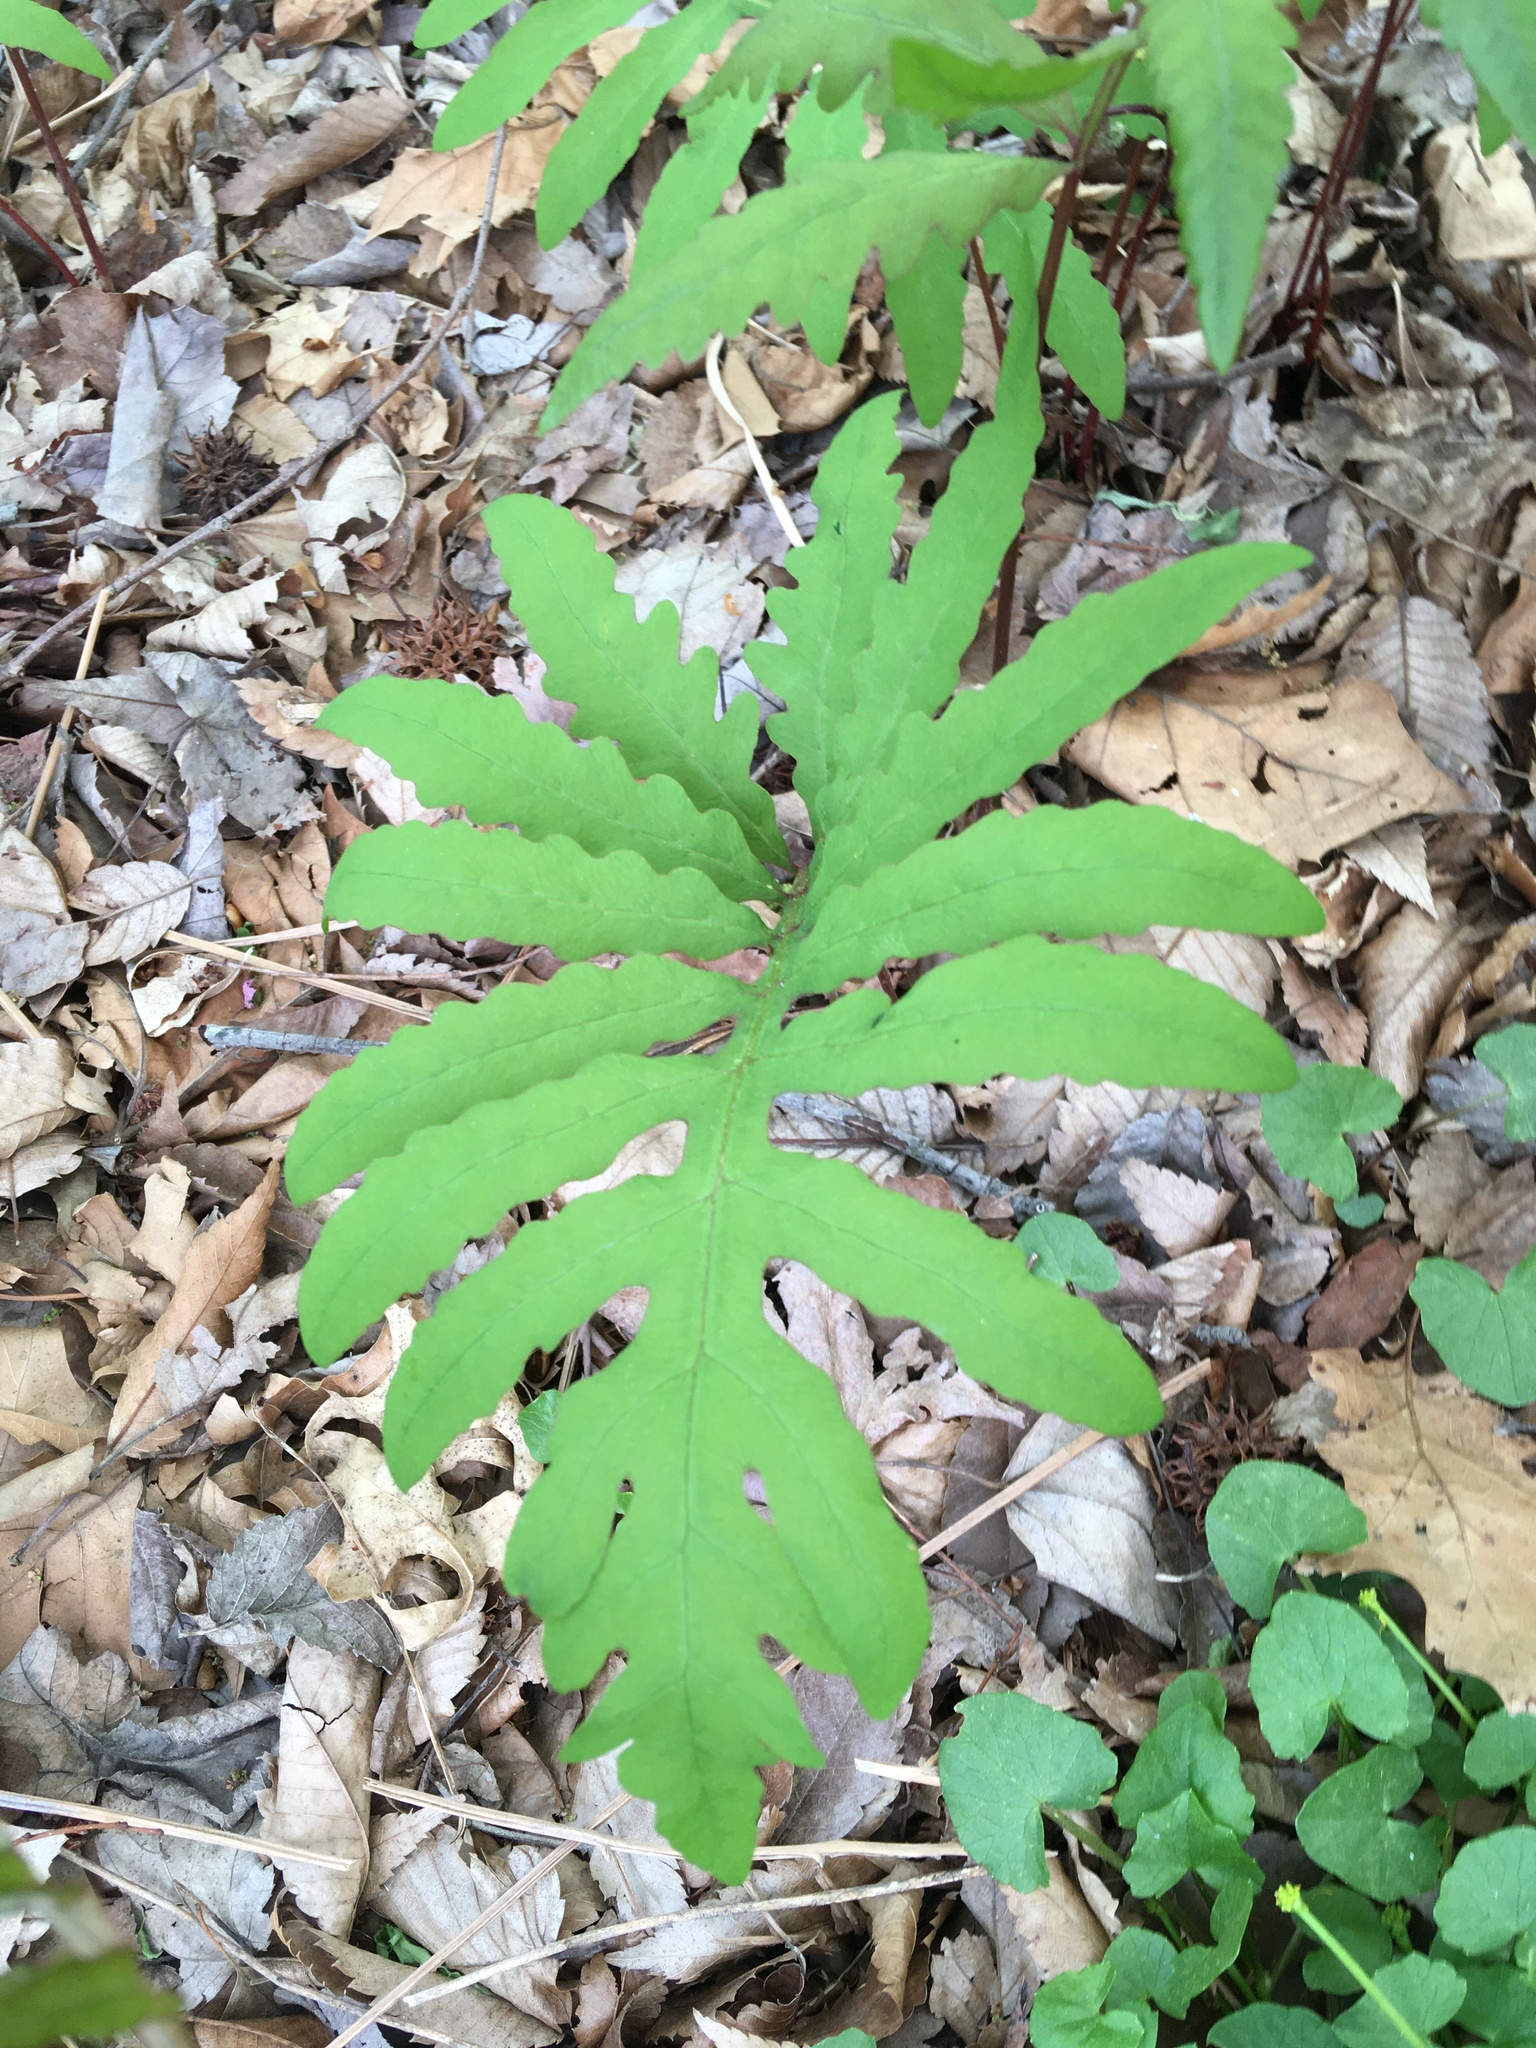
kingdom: Plantae
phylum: Tracheophyta
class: Polypodiopsida
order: Polypodiales
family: Onocleaceae
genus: Onoclea
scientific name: Onoclea sensibilis
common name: Sensitive fern
